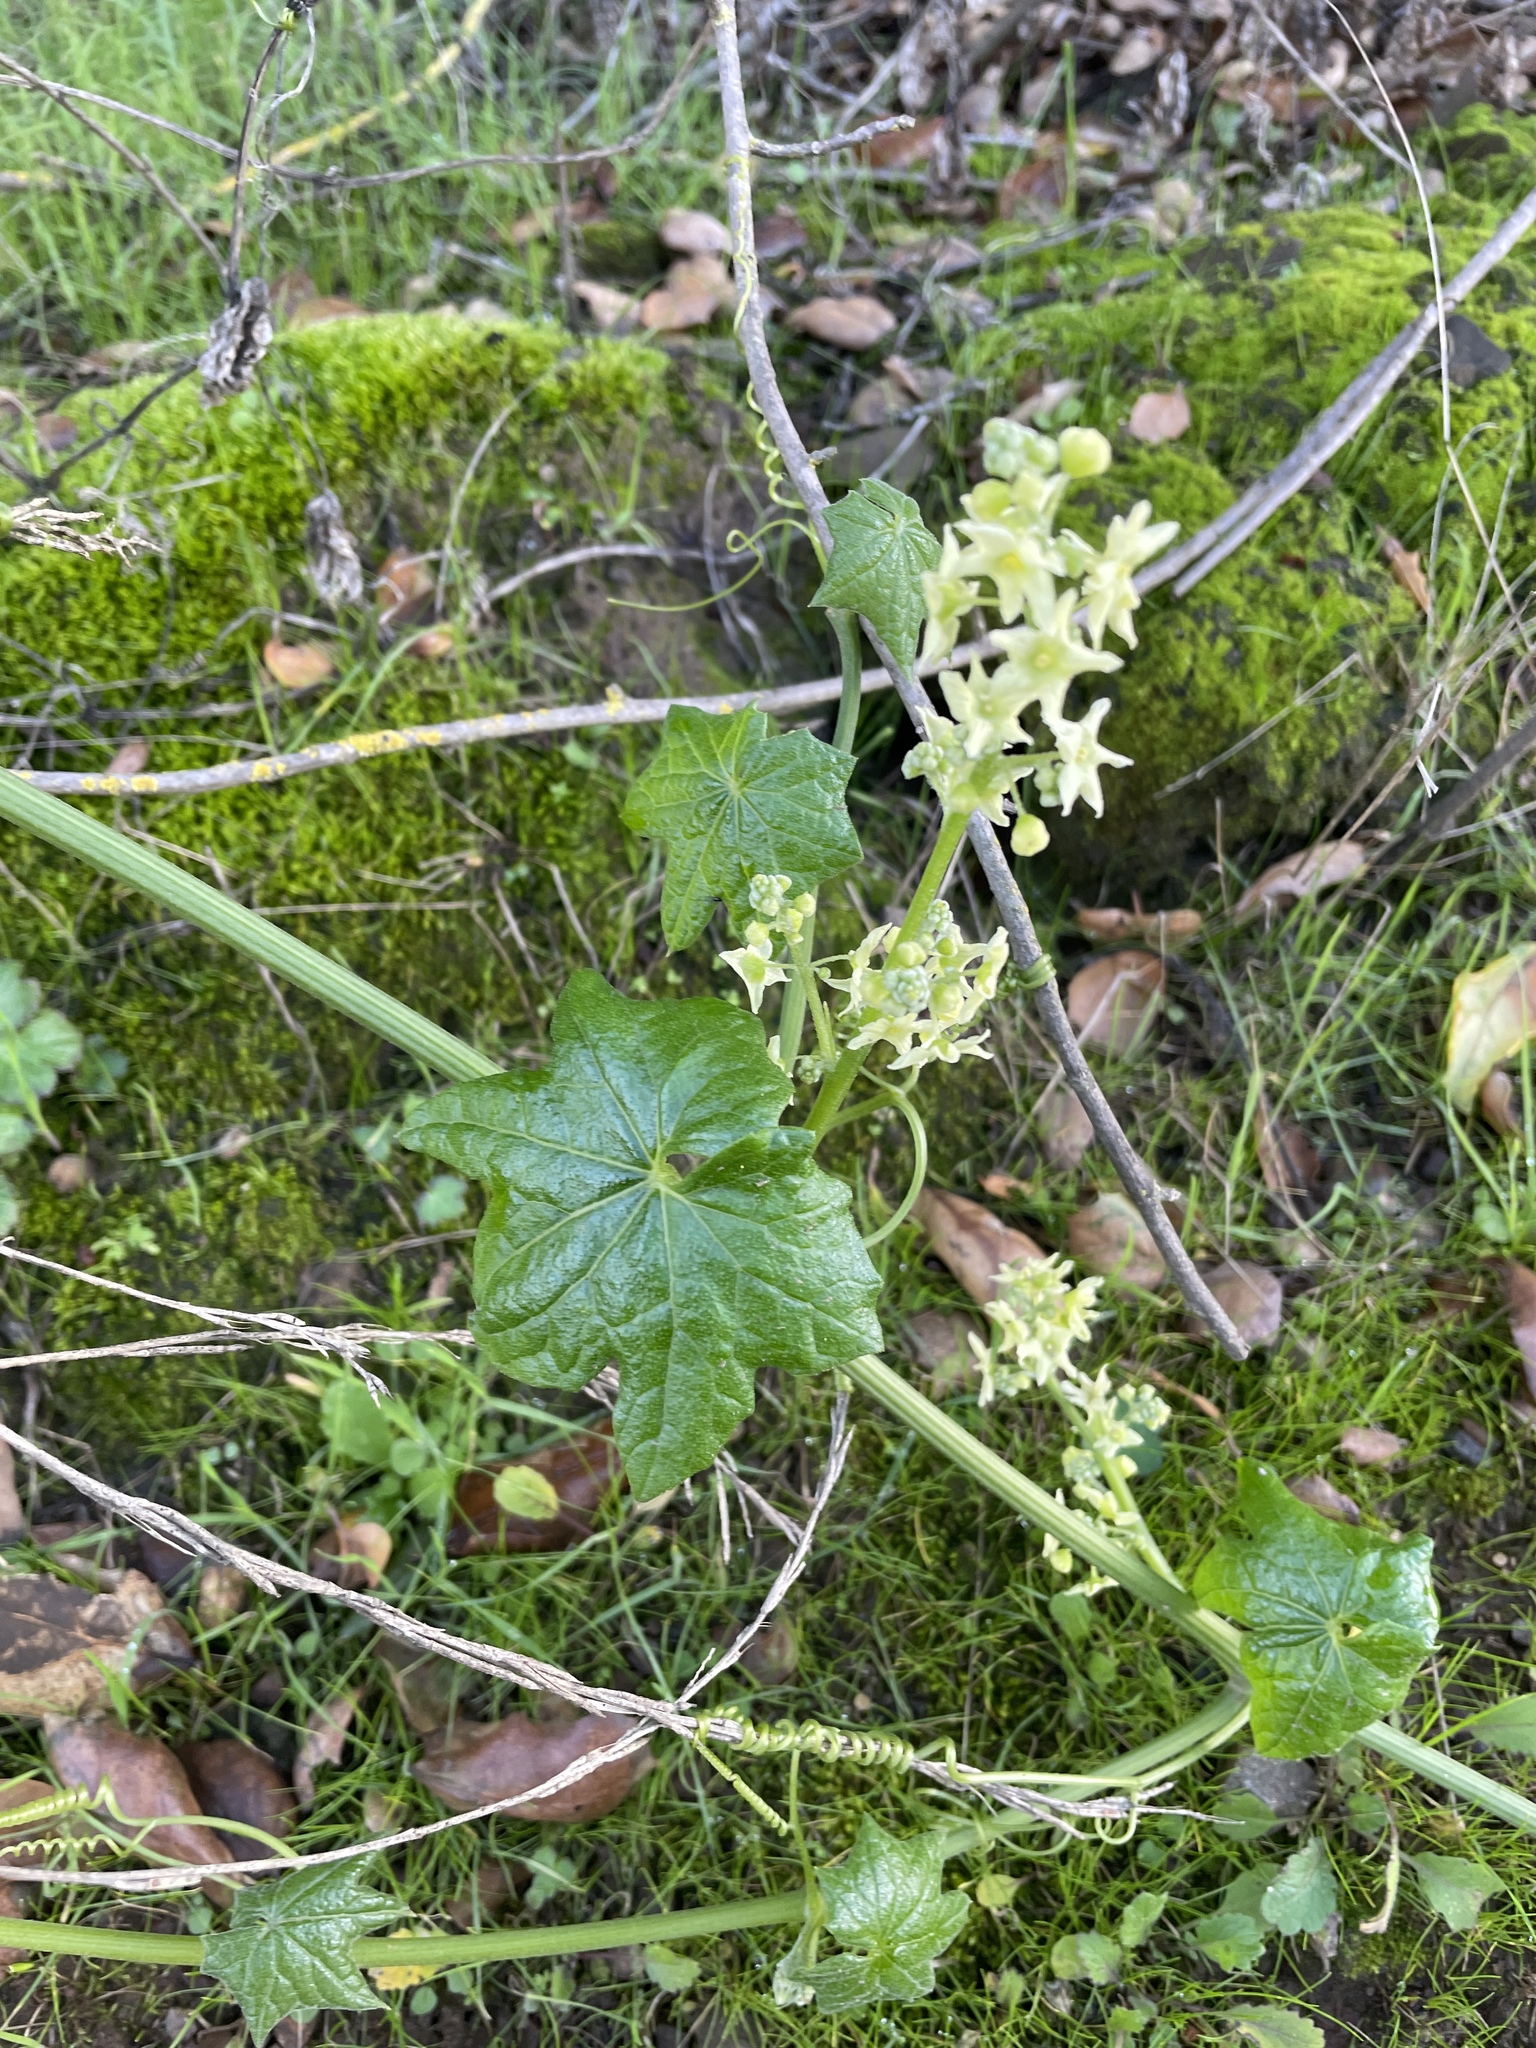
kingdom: Plantae
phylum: Tracheophyta
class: Magnoliopsida
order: Cucurbitales
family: Cucurbitaceae
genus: Marah
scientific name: Marah fabacea
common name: California manroot
